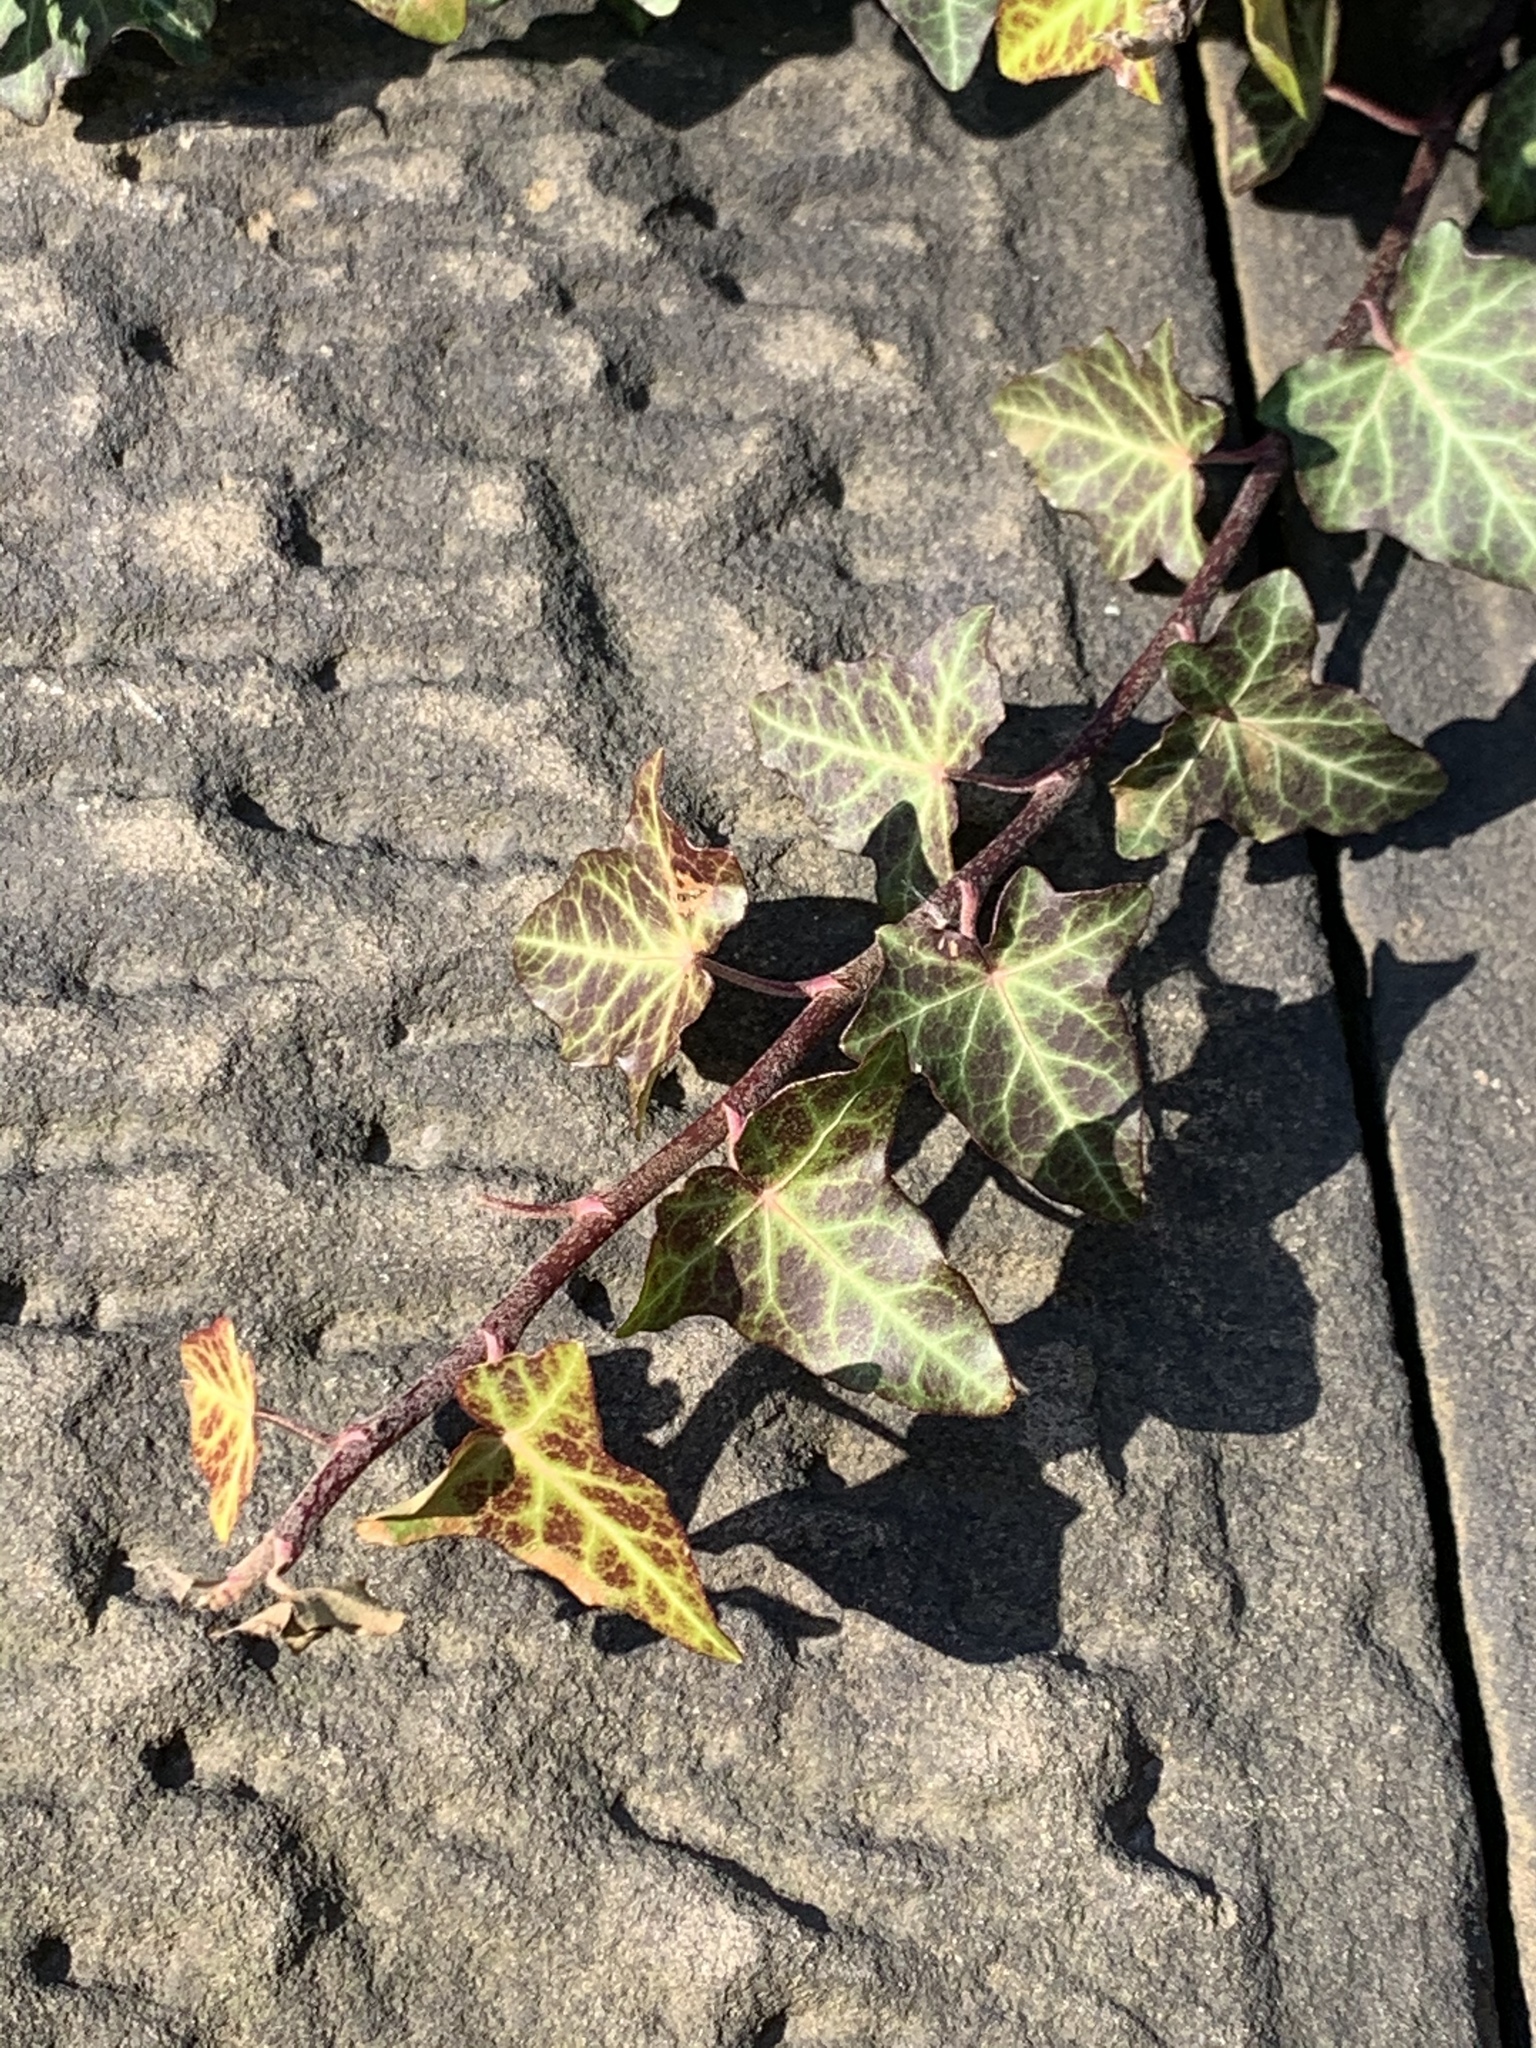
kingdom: Plantae
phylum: Tracheophyta
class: Magnoliopsida
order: Apiales
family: Araliaceae
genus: Hedera
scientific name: Hedera
